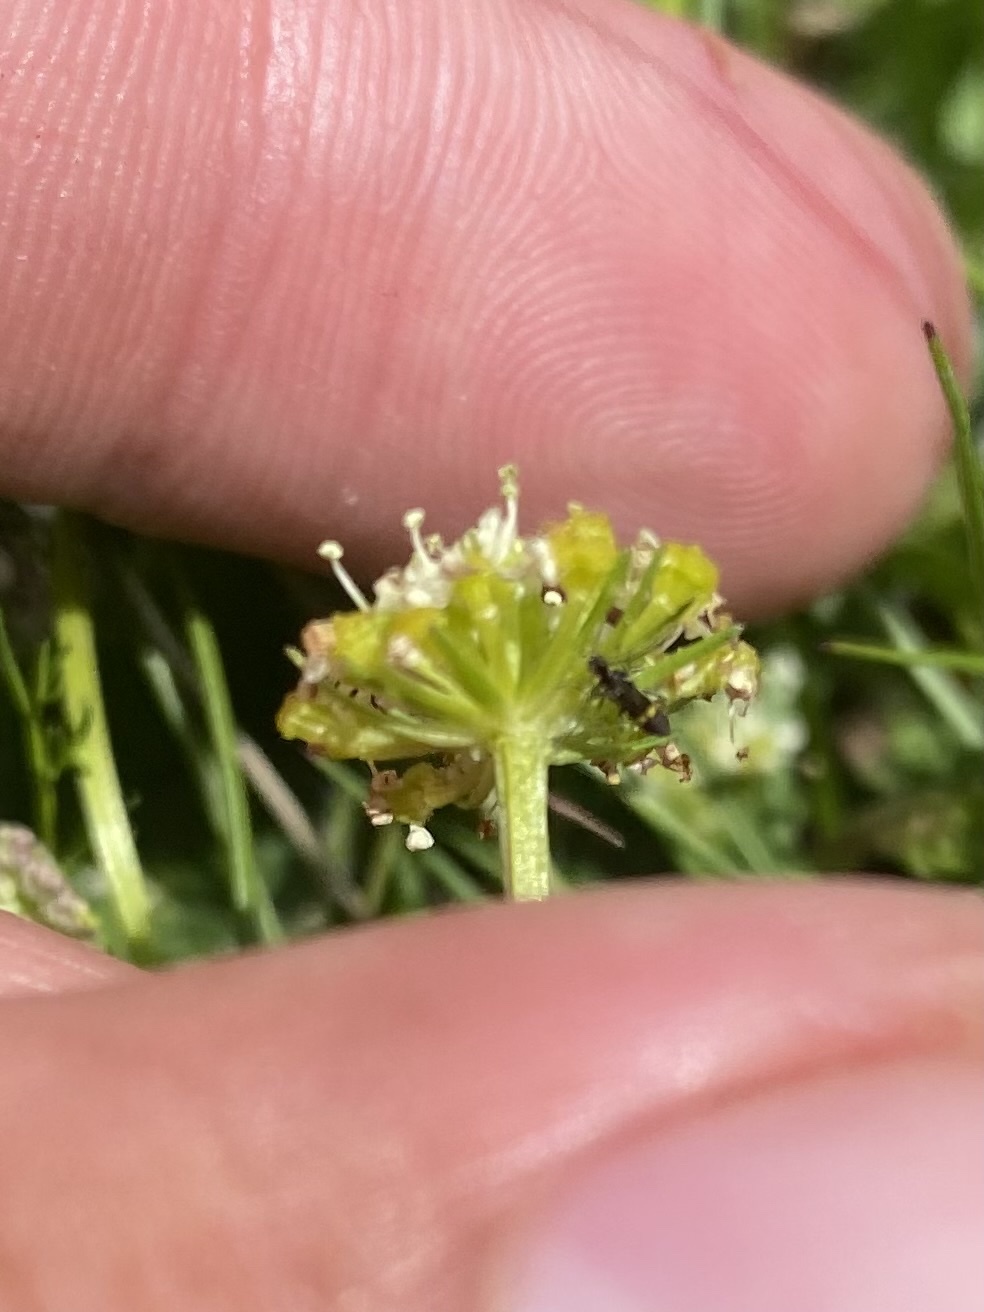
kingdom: Plantae
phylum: Tracheophyta
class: Magnoliopsida
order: Apiales
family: Apiaceae
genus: Chamaesciadium
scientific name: Chamaesciadium acaule
